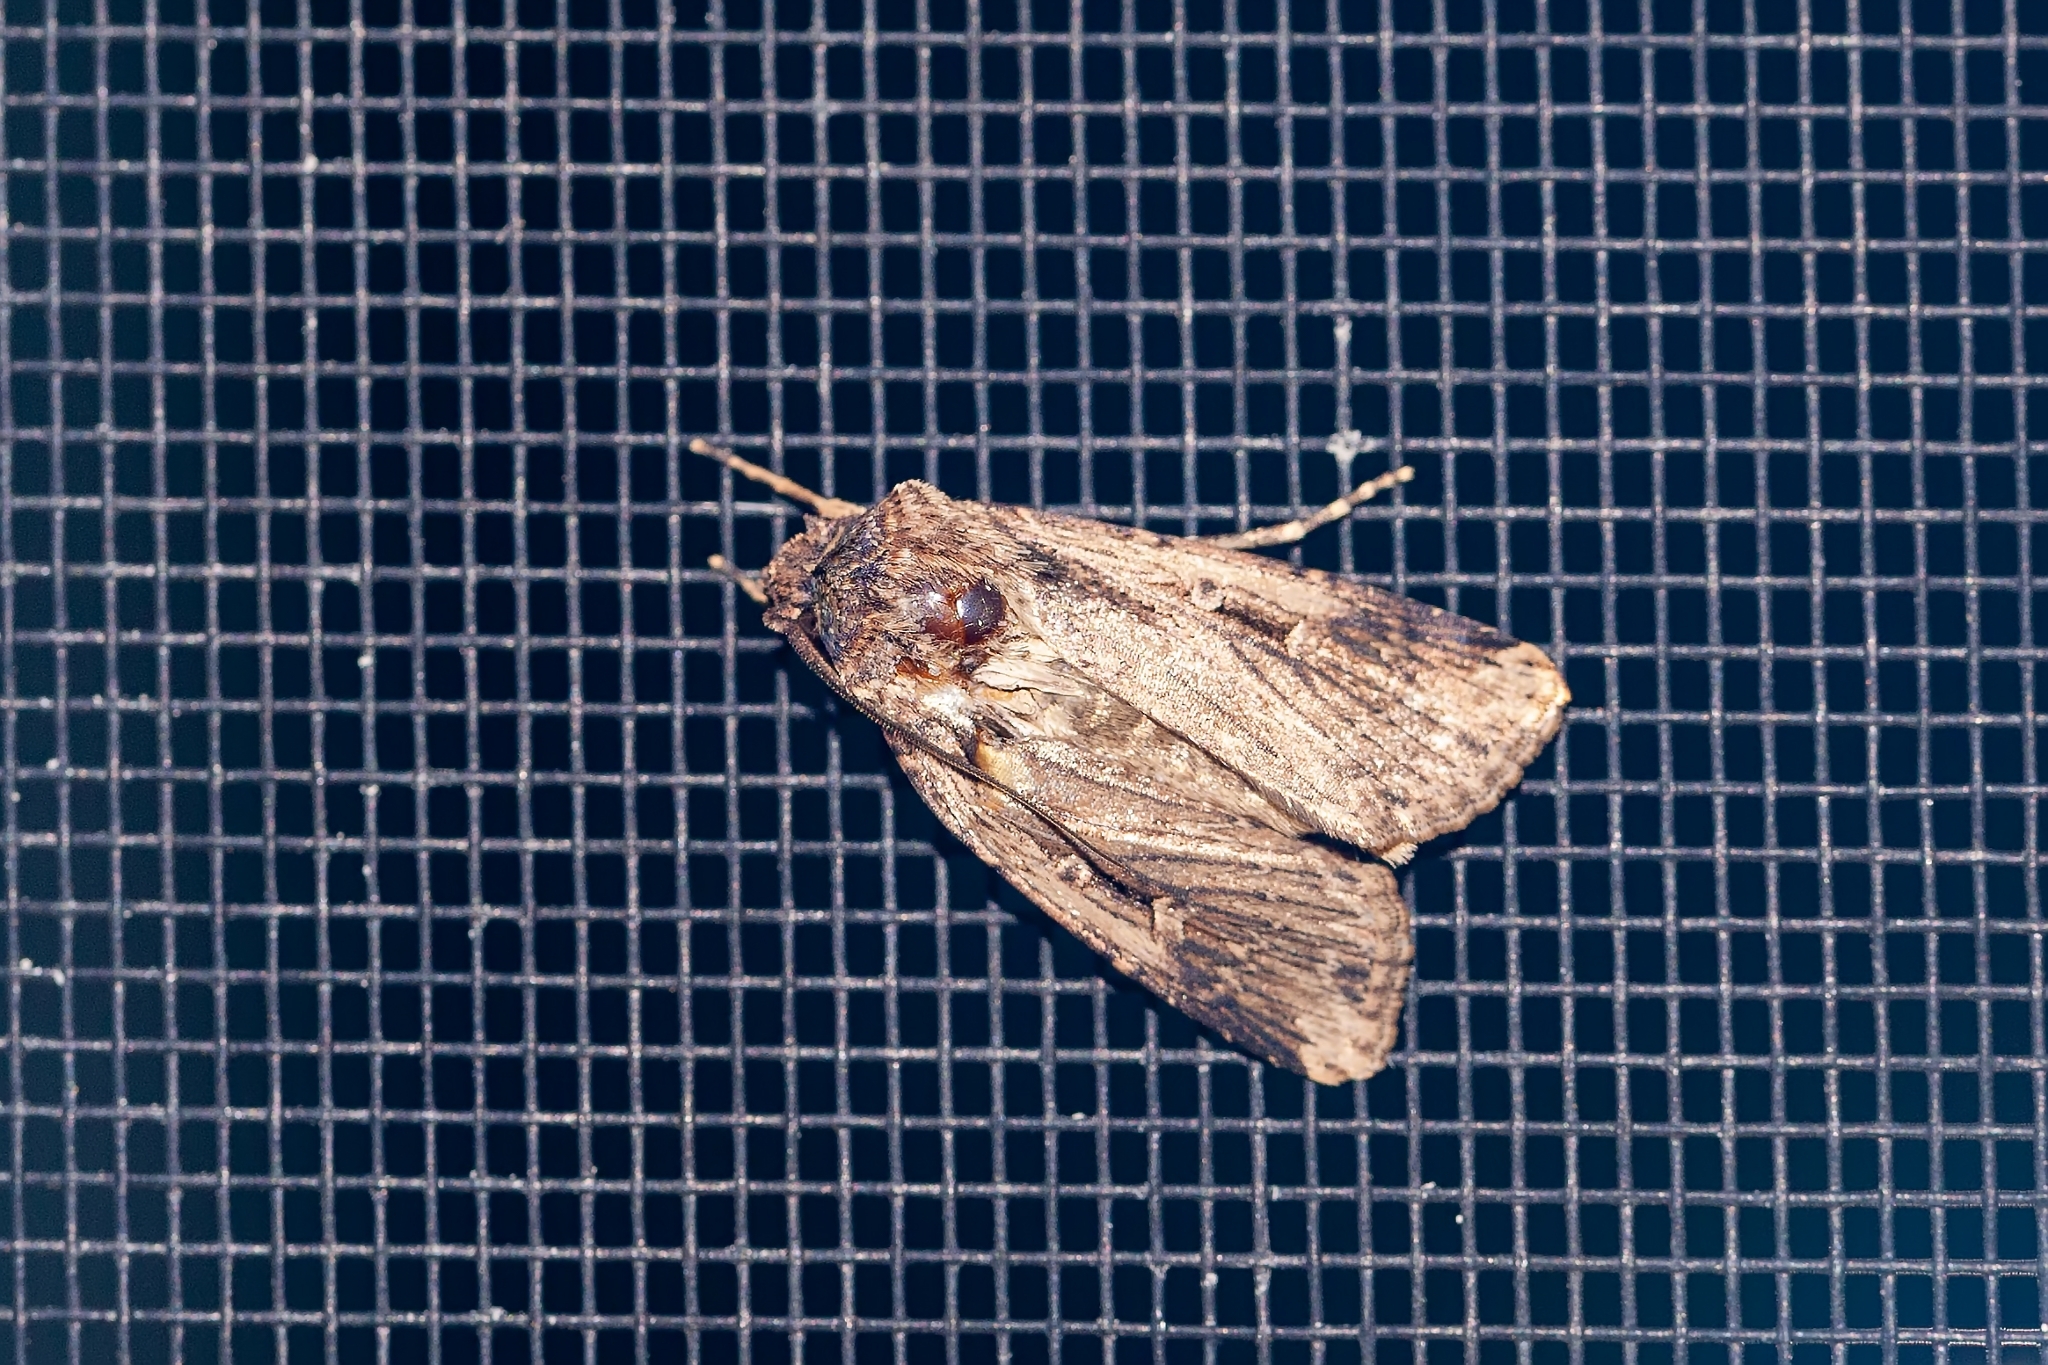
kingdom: Animalia
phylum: Arthropoda
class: Insecta
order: Lepidoptera
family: Noctuidae
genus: Feltia
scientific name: Feltia subterranea
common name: Granulate cutworm
